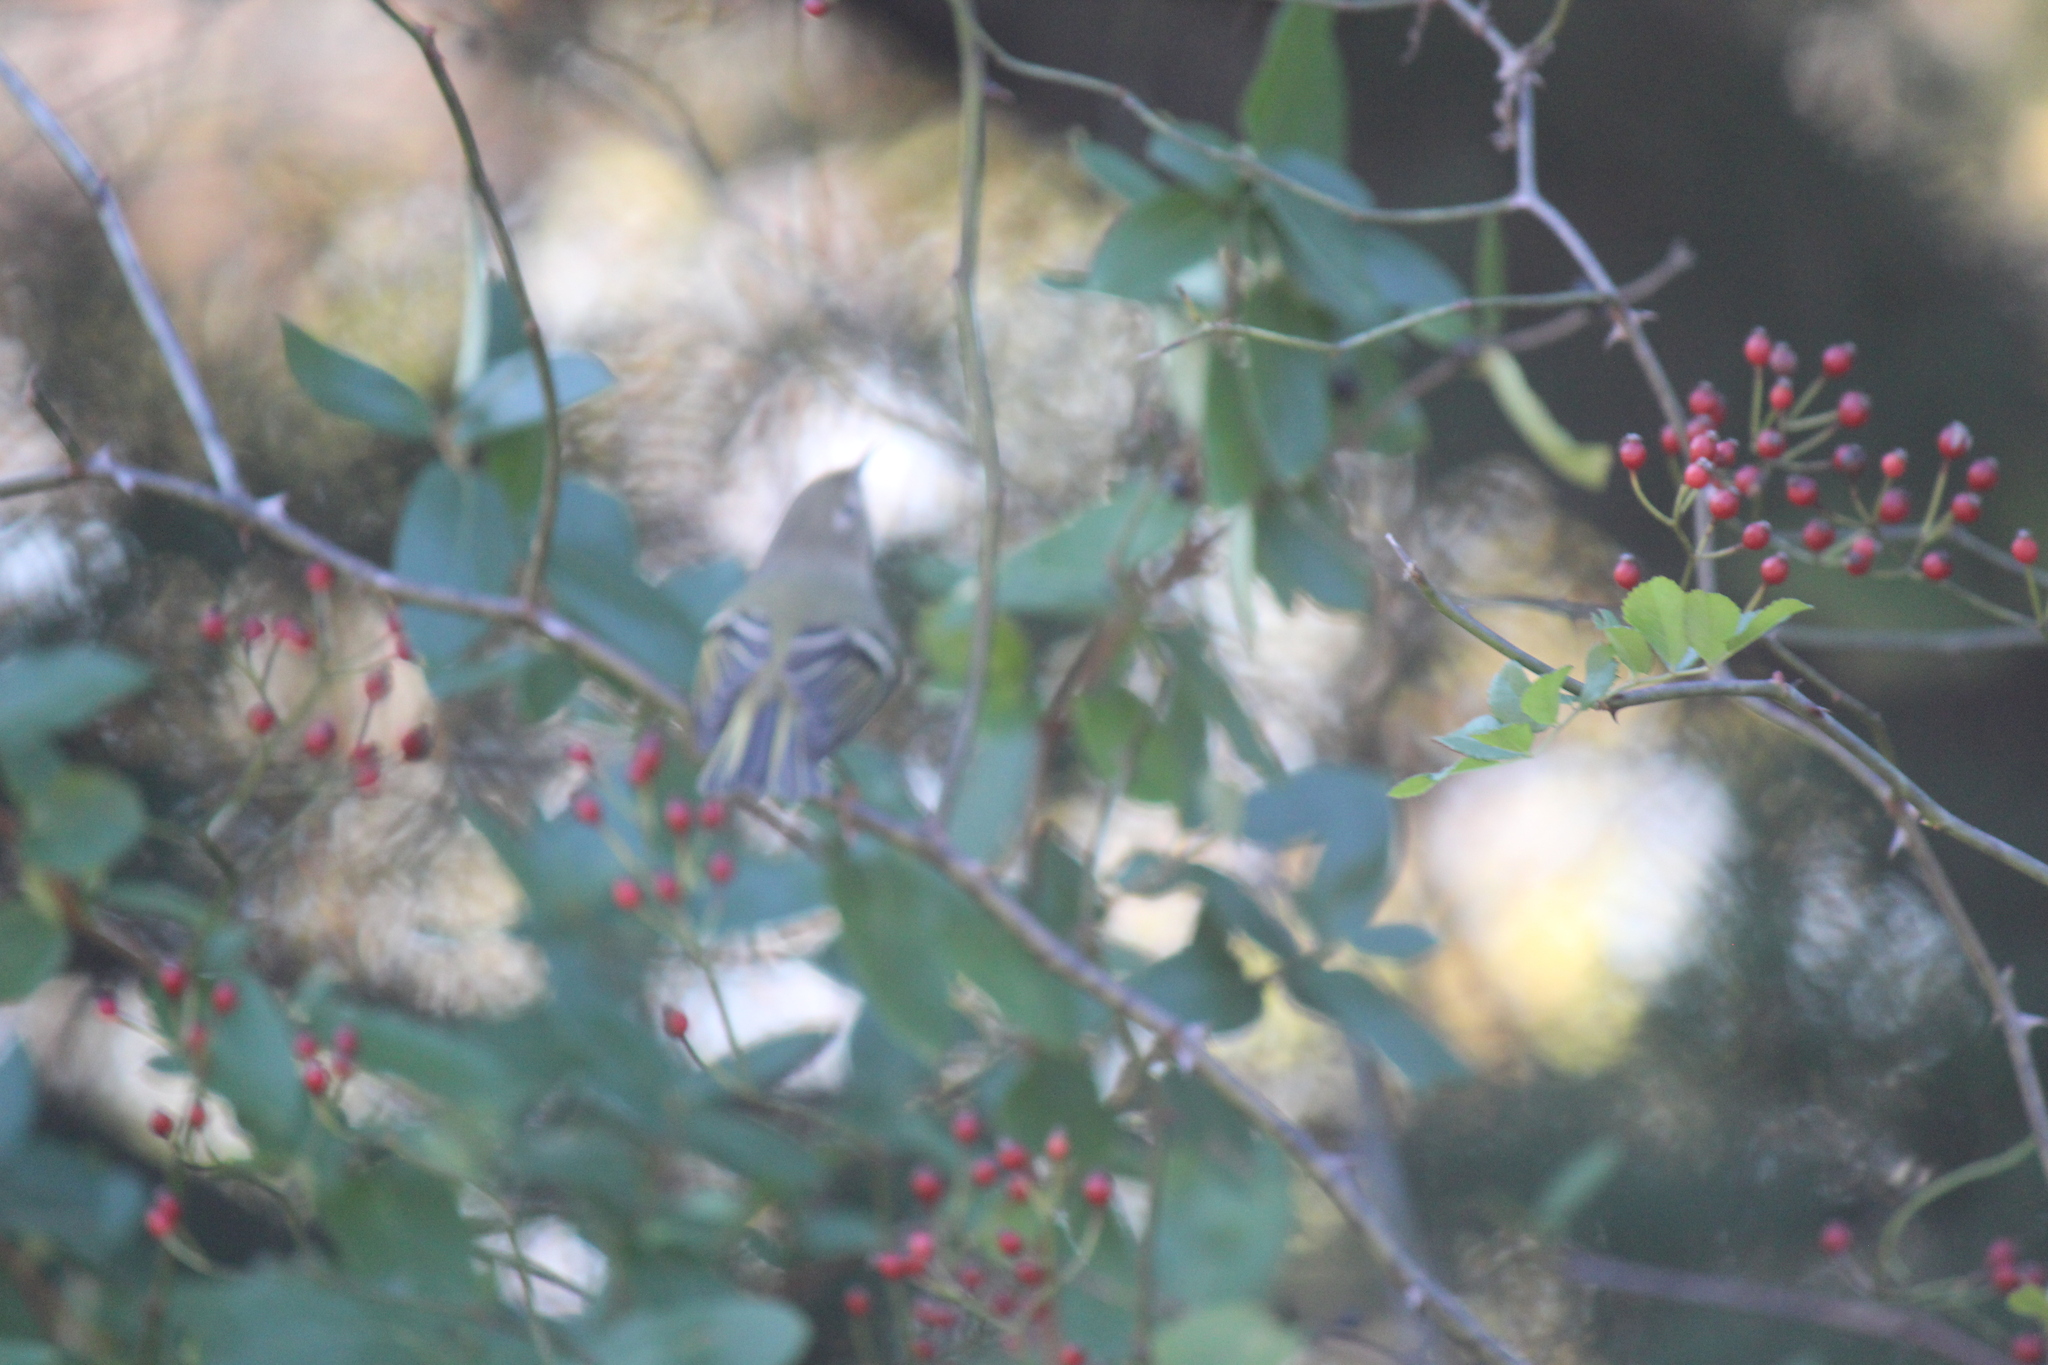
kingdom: Animalia
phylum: Chordata
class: Aves
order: Passeriformes
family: Regulidae
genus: Regulus
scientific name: Regulus calendula
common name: Ruby-crowned kinglet
